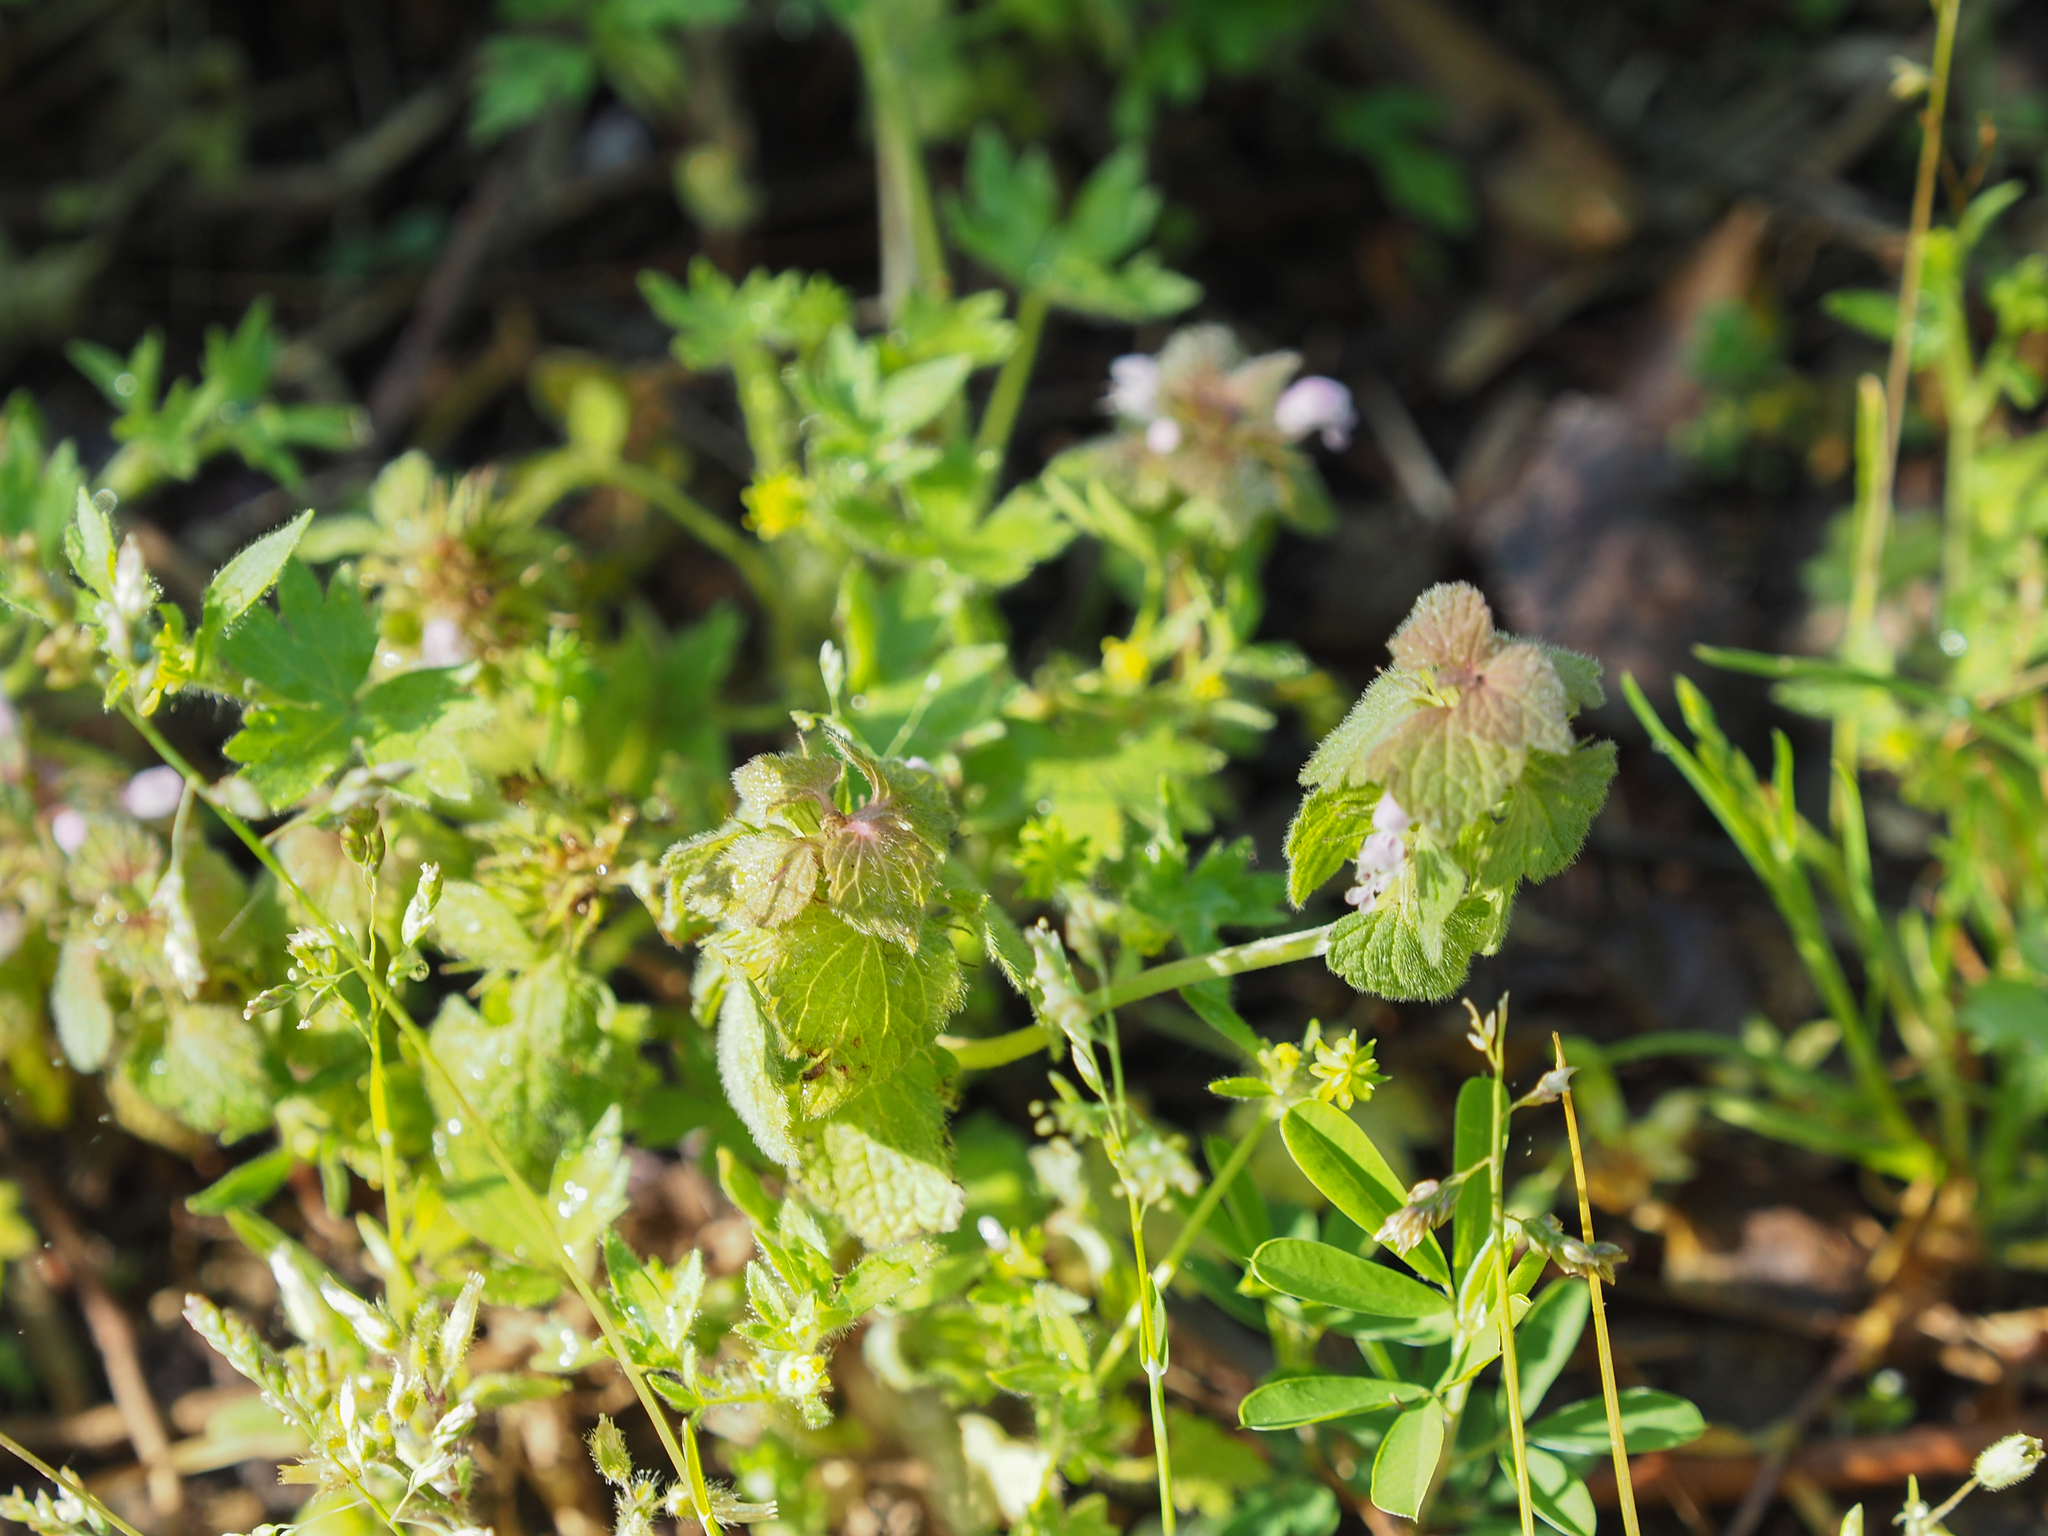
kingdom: Plantae
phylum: Tracheophyta
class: Magnoliopsida
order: Lamiales
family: Lamiaceae
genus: Lamium
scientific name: Lamium purpureum
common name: Red dead-nettle
